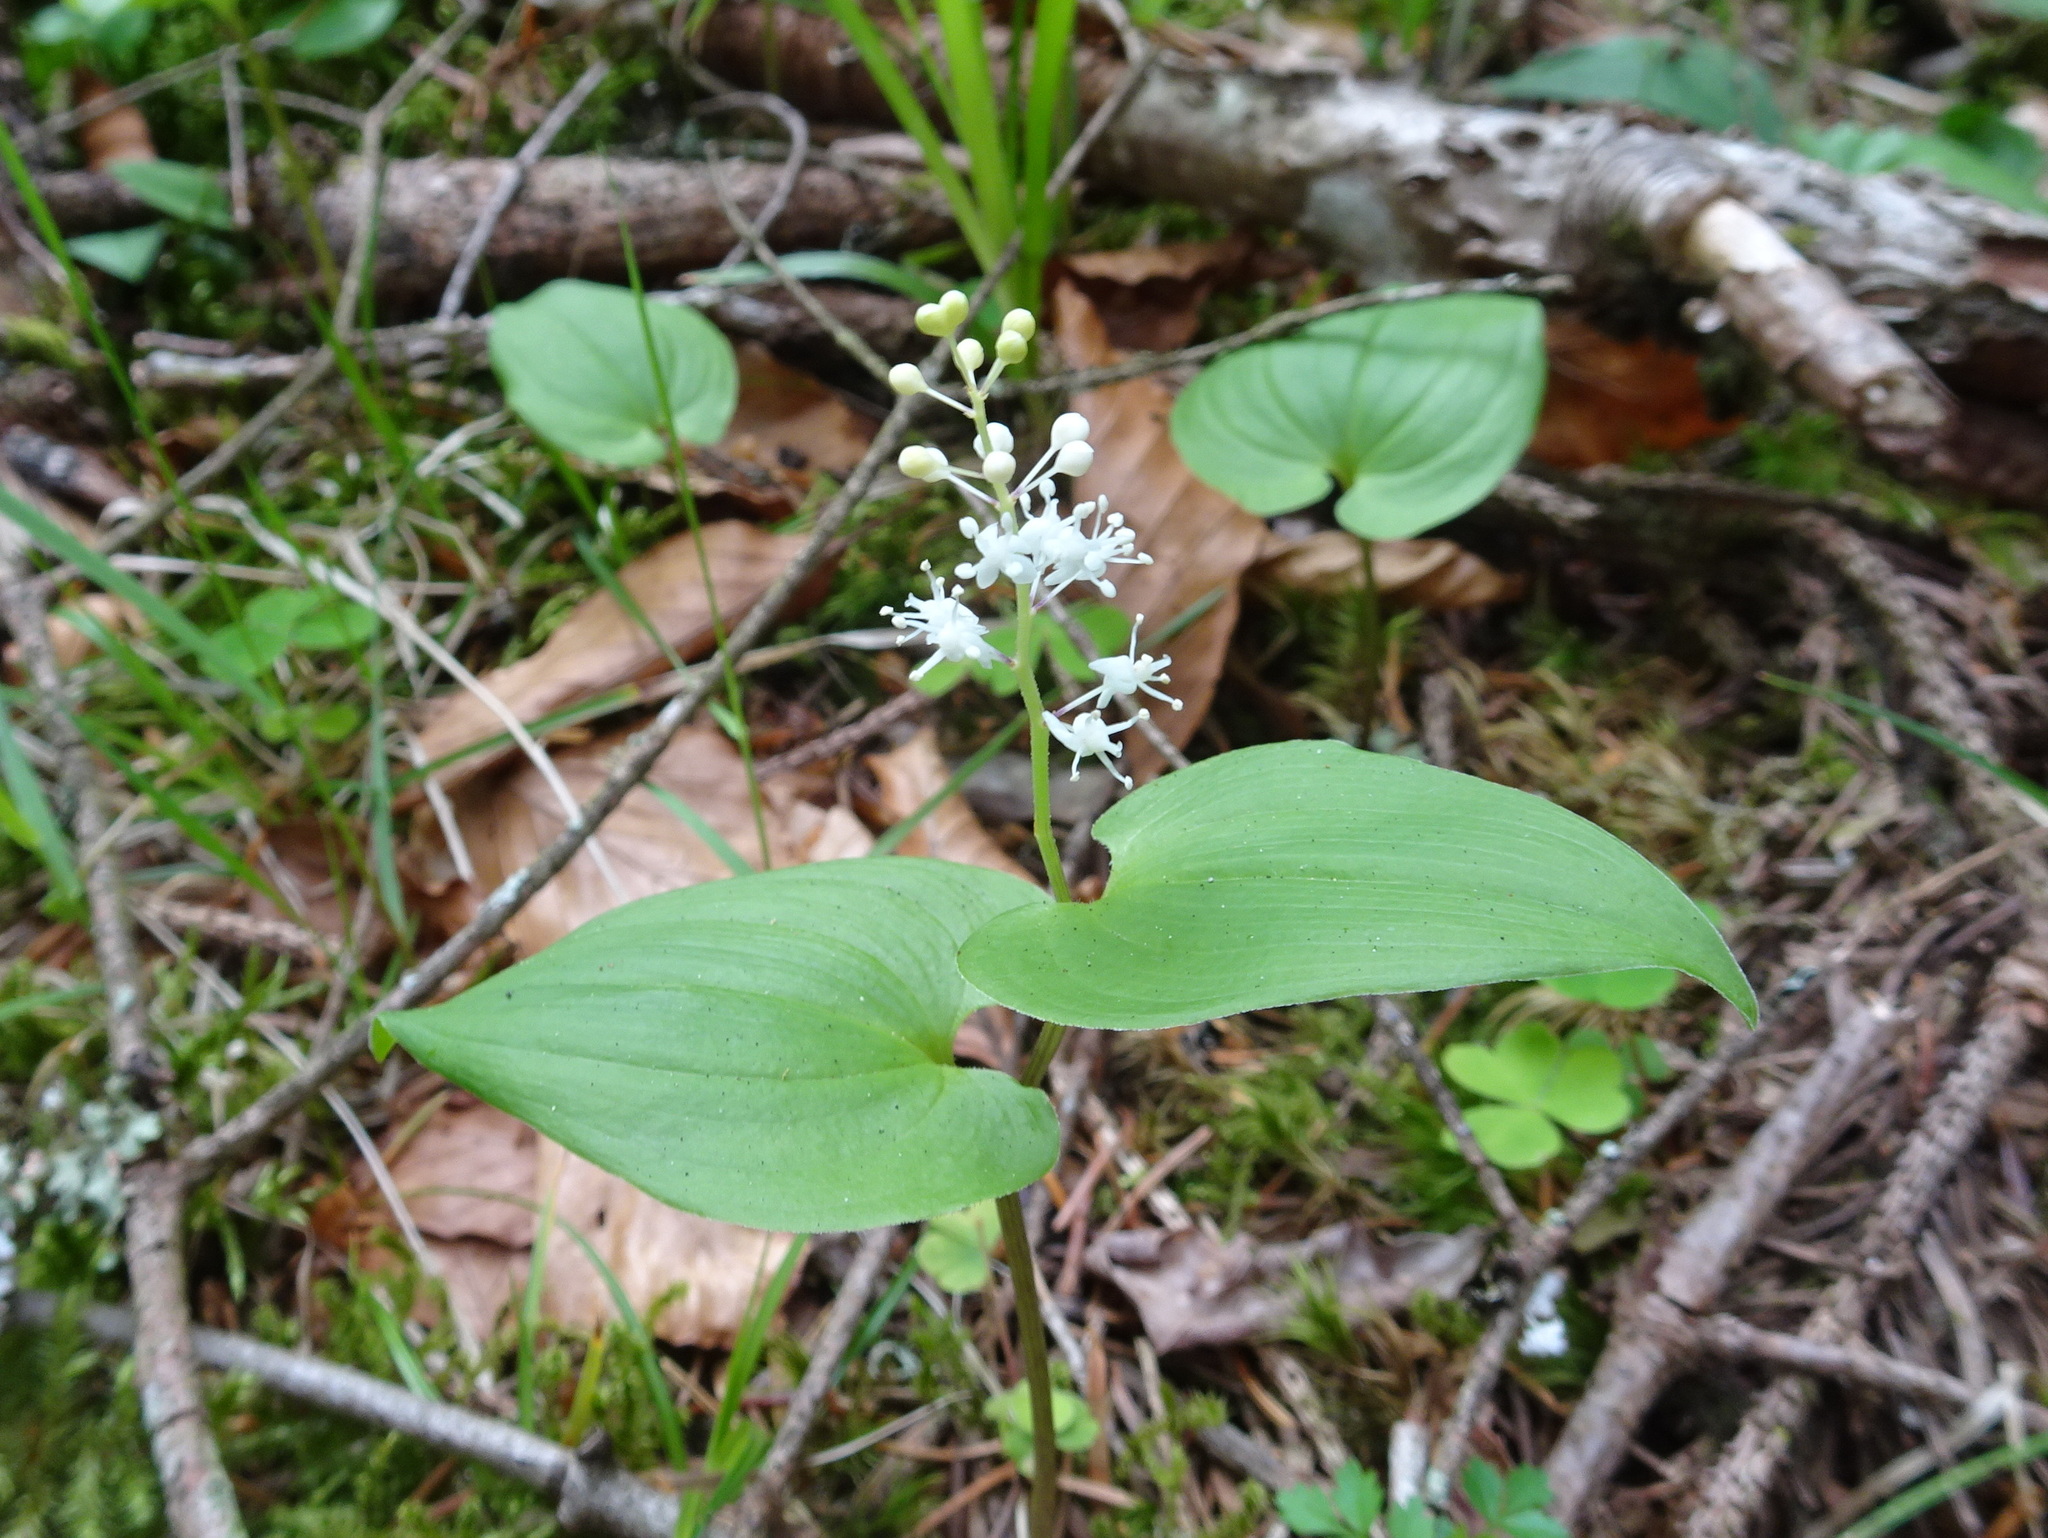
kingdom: Plantae
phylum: Tracheophyta
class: Liliopsida
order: Asparagales
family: Asparagaceae
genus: Maianthemum
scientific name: Maianthemum bifolium
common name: May lily
